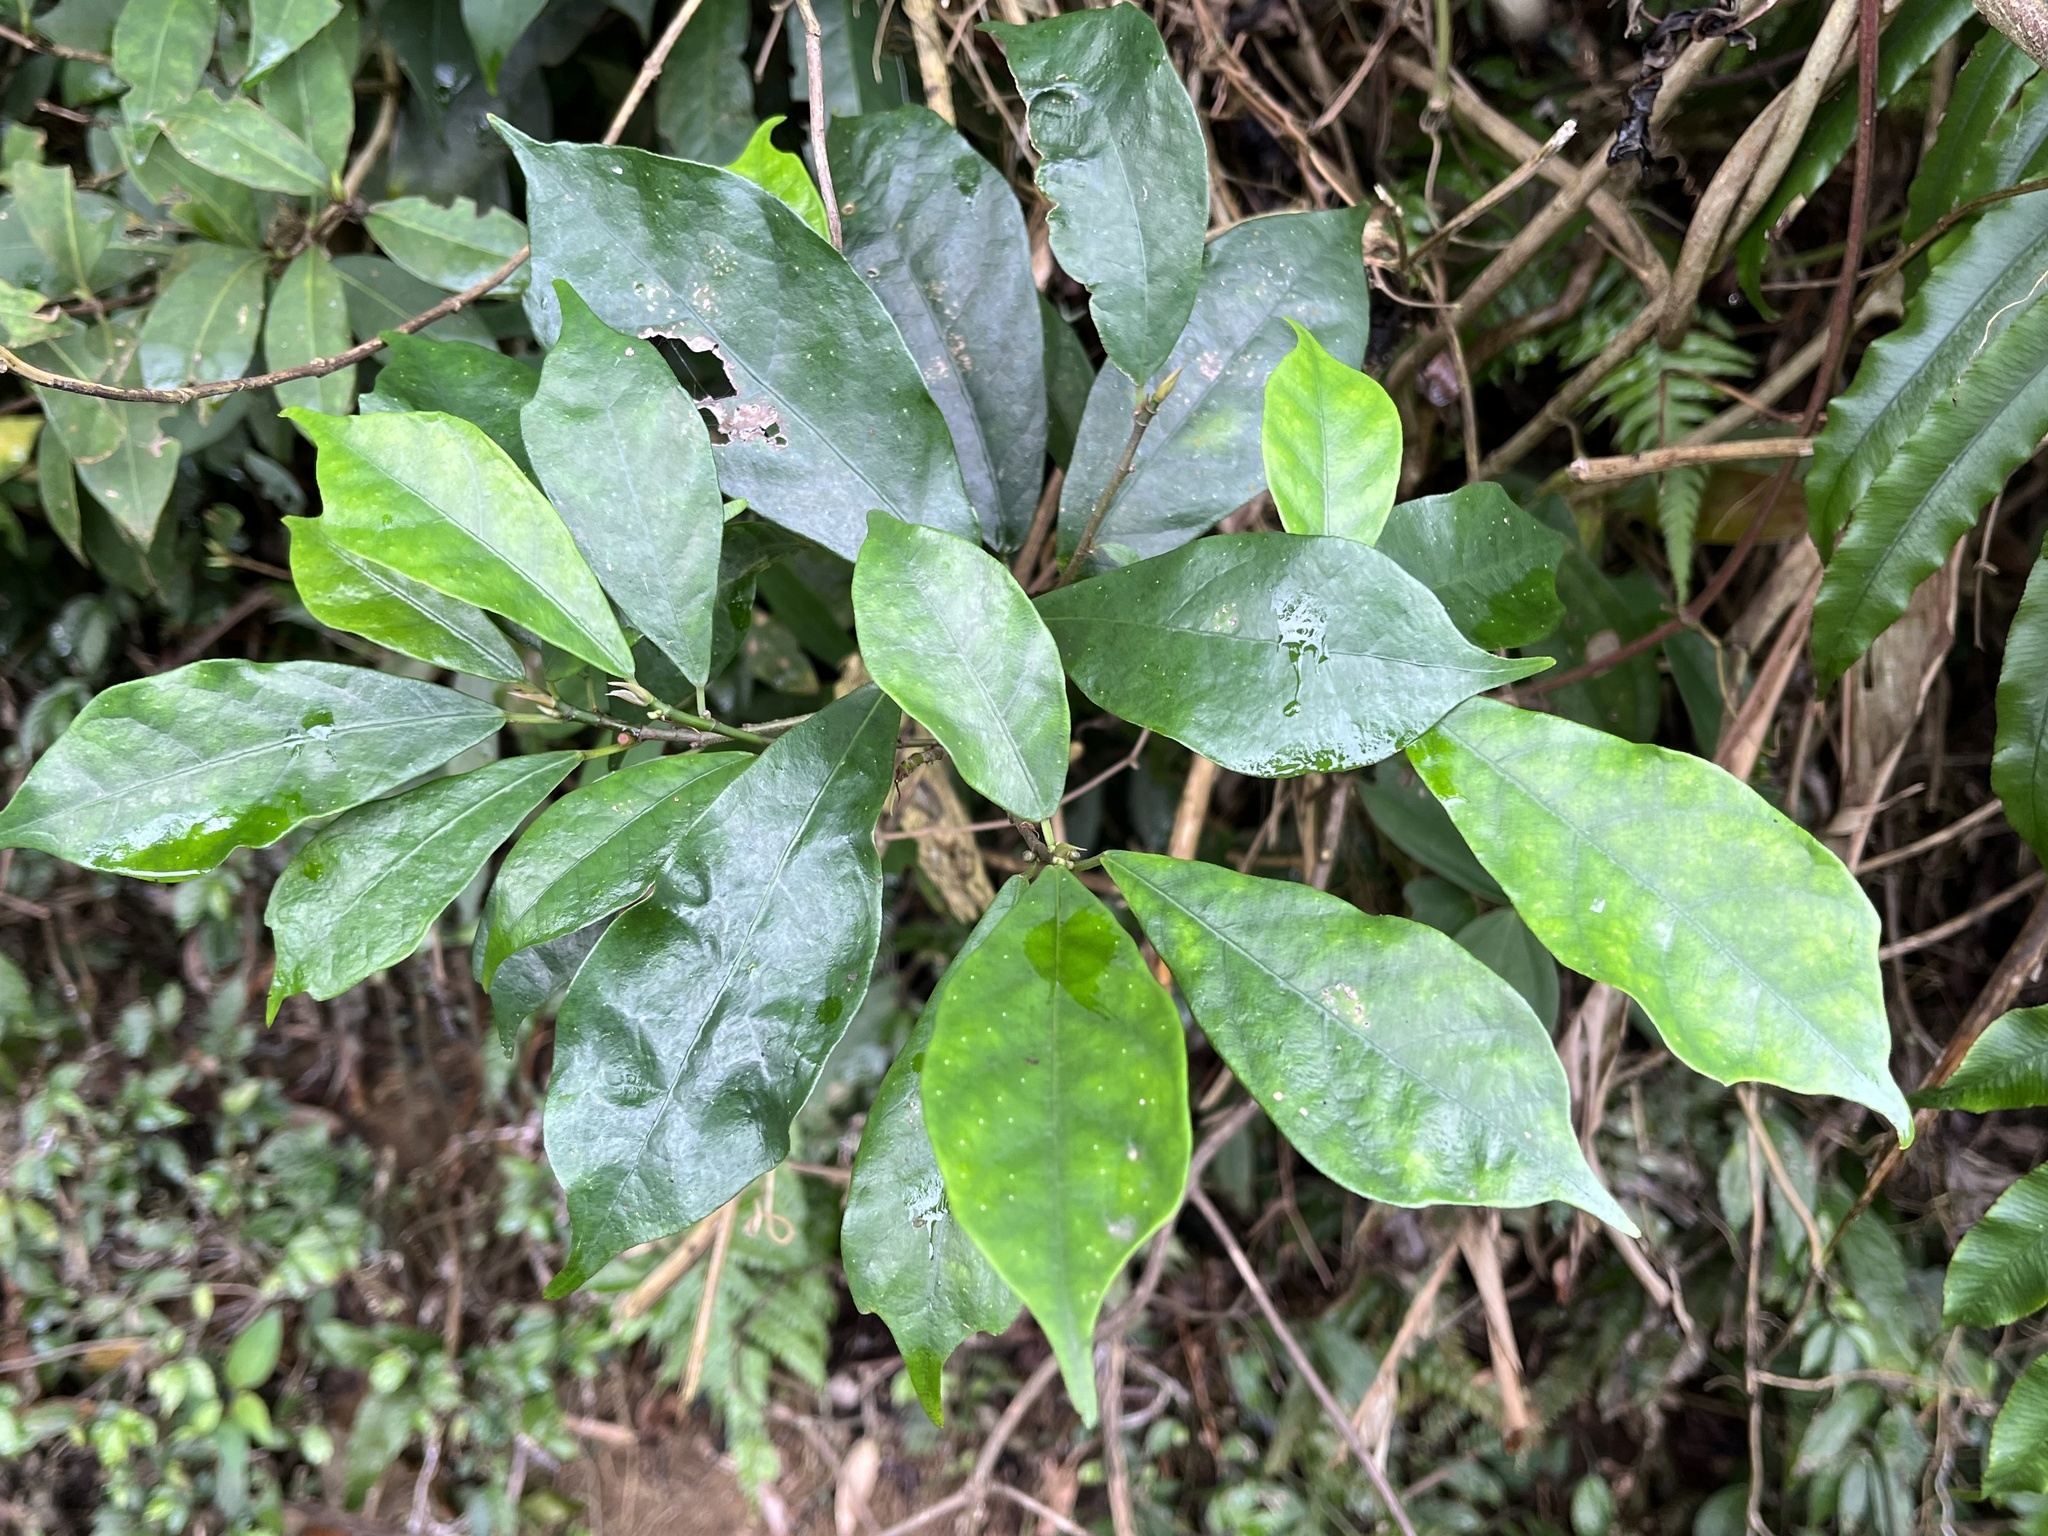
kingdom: Plantae
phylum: Tracheophyta
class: Magnoliopsida
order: Rosales
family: Moraceae
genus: Ficus
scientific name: Ficus formosana
